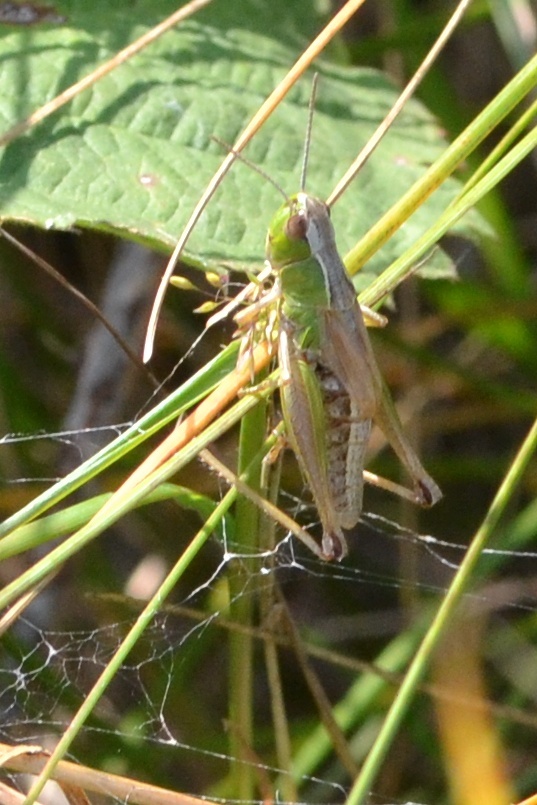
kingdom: Animalia
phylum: Arthropoda
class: Insecta
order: Orthoptera
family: Acrididae
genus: Pseudochorthippus
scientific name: Pseudochorthippus parallelus
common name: Meadow grasshopper
